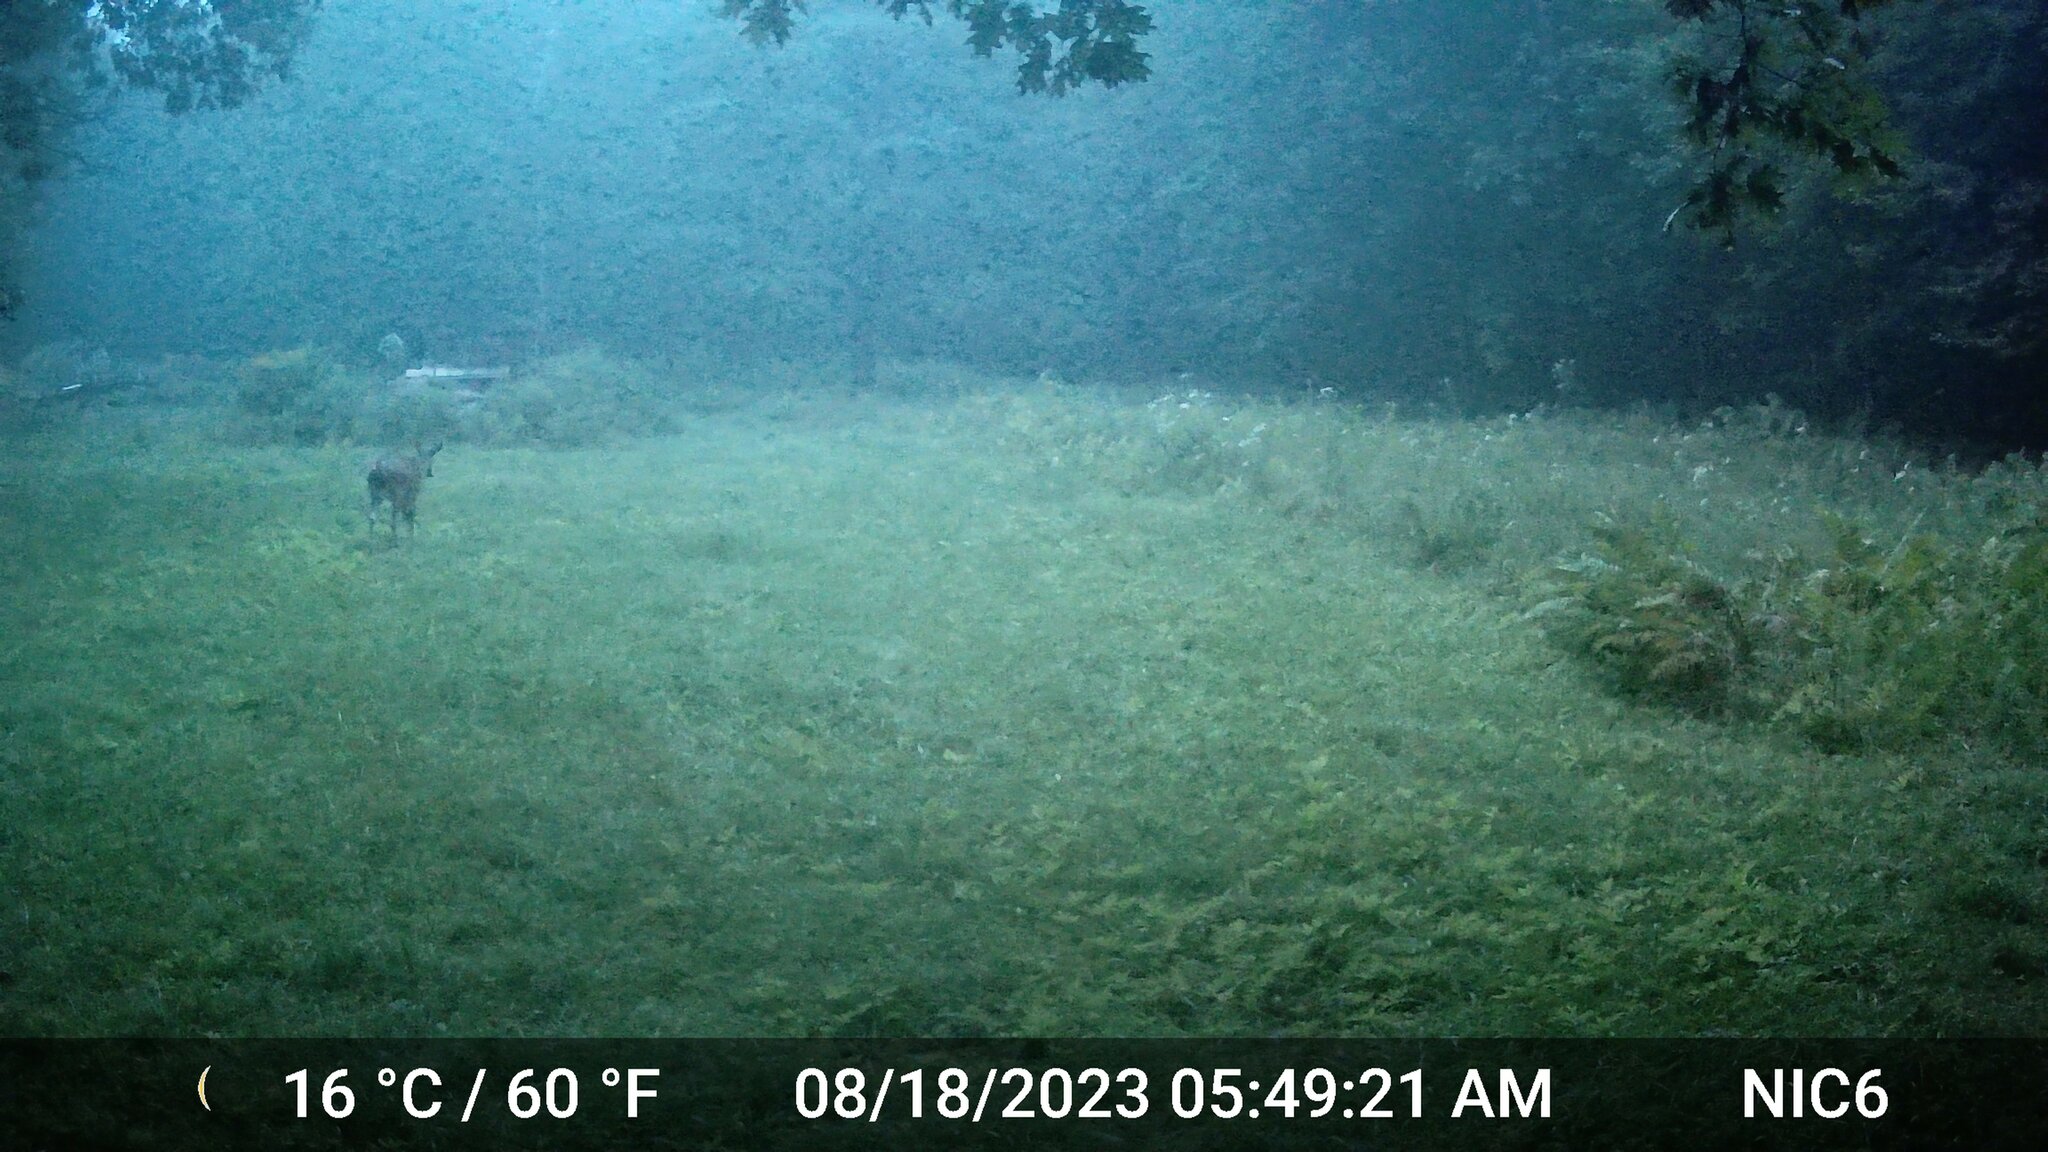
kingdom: Animalia
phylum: Chordata
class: Mammalia
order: Artiodactyla
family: Cervidae
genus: Odocoileus
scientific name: Odocoileus virginianus
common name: White-tailed deer
